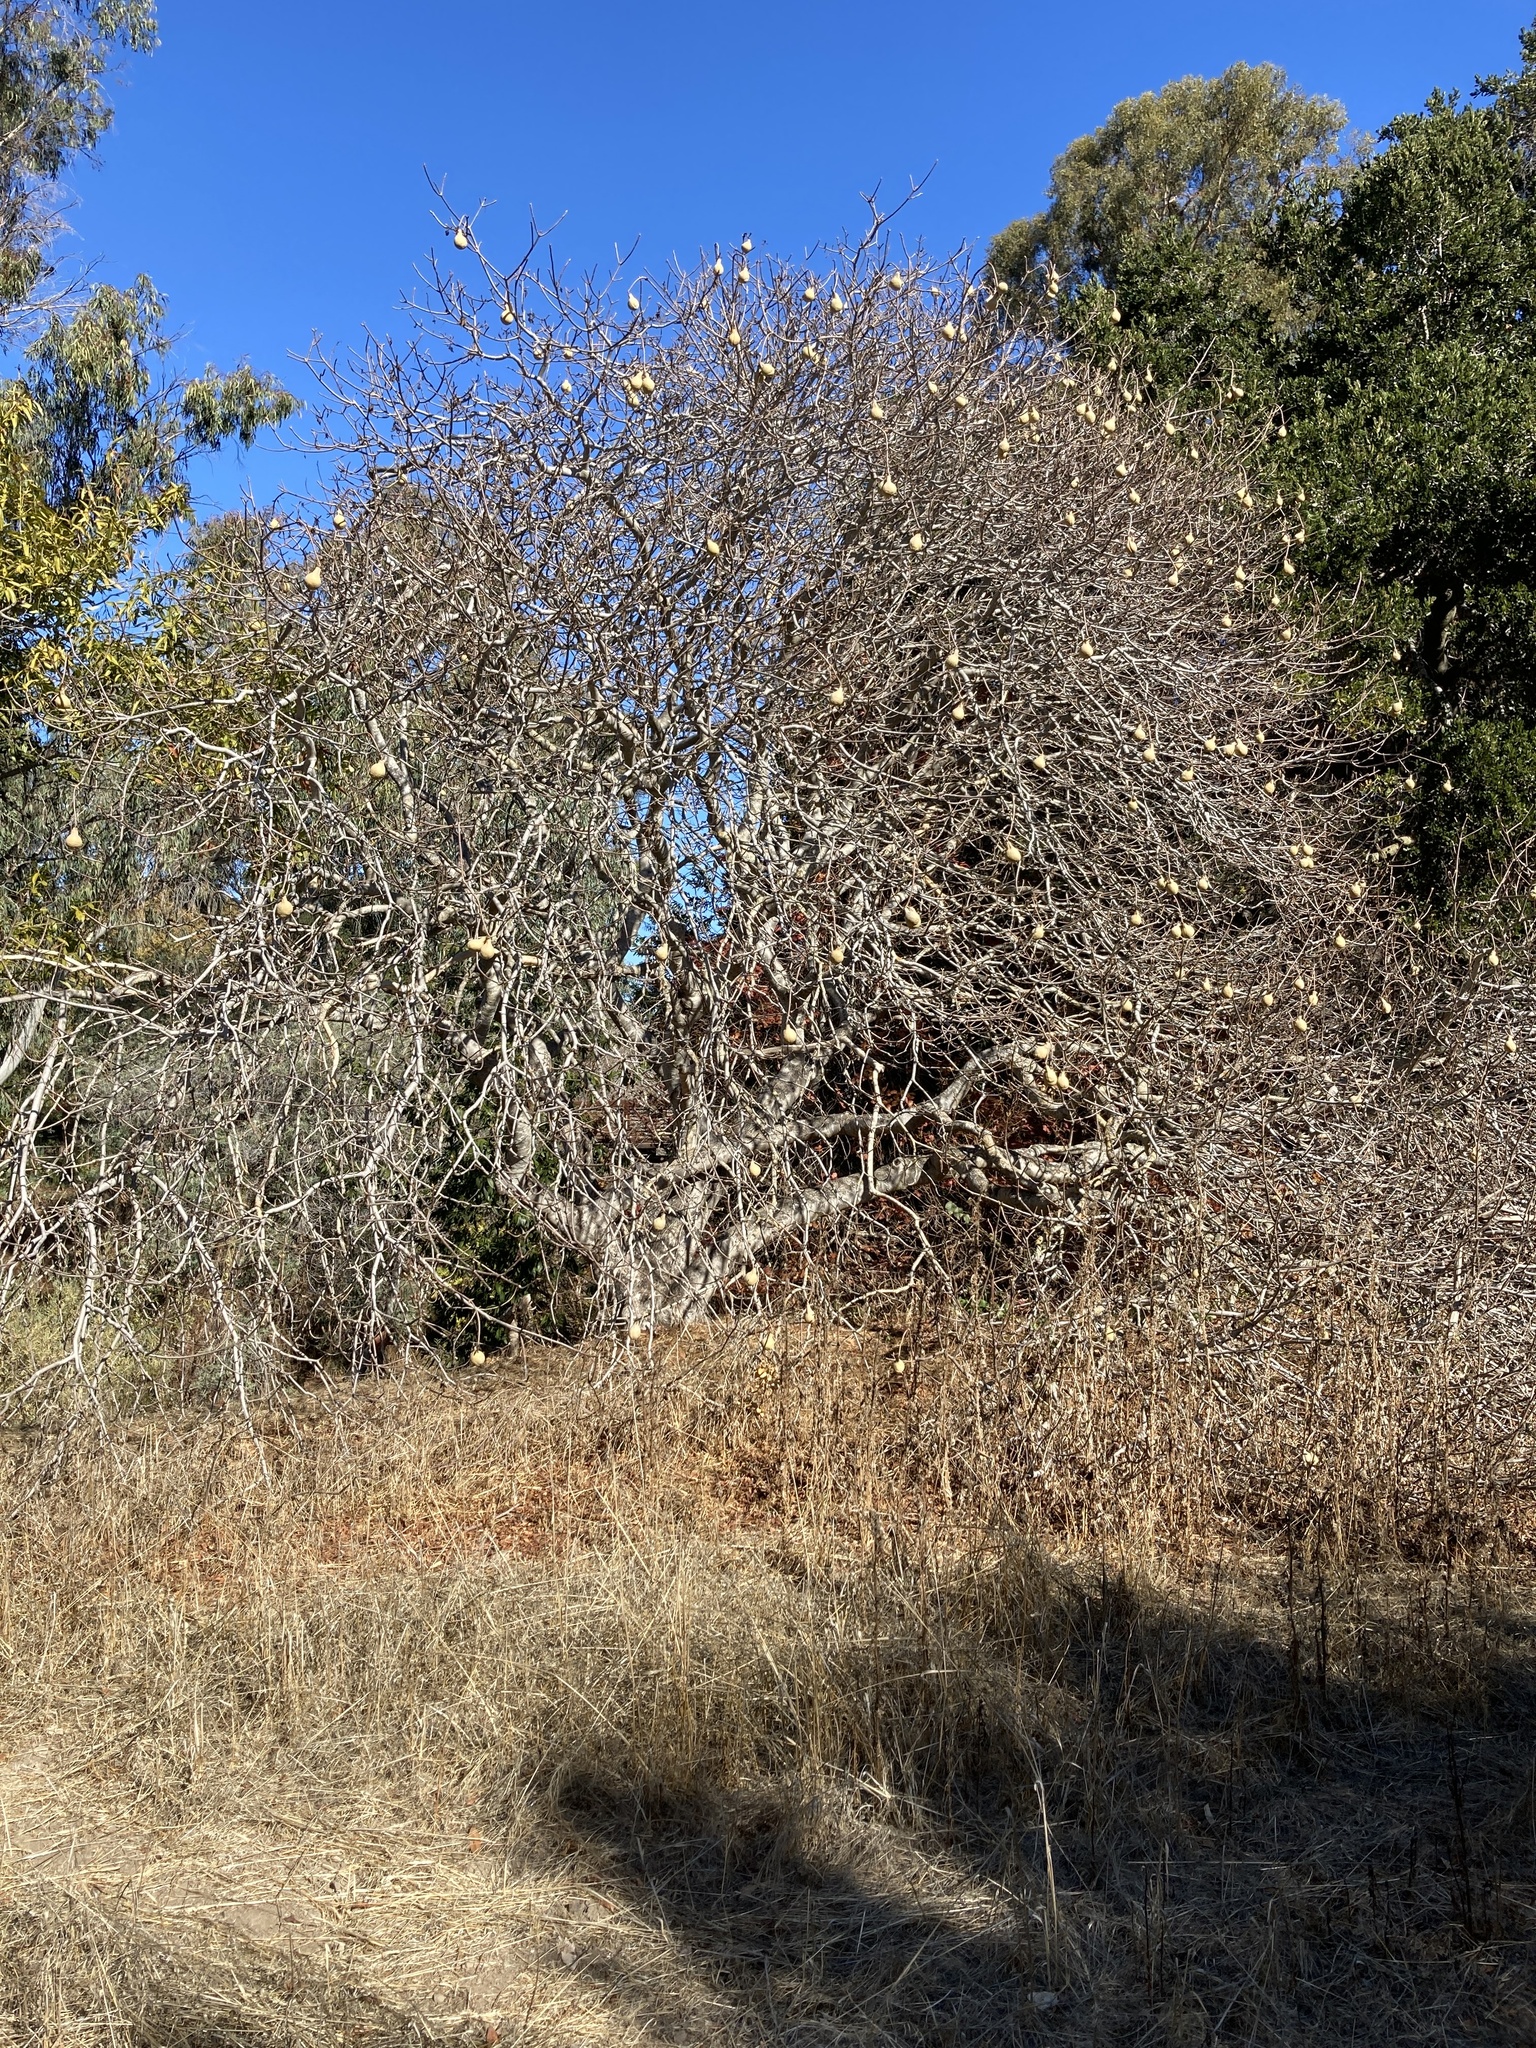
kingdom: Plantae
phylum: Tracheophyta
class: Magnoliopsida
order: Sapindales
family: Sapindaceae
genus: Aesculus
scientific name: Aesculus californica
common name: California buckeye
